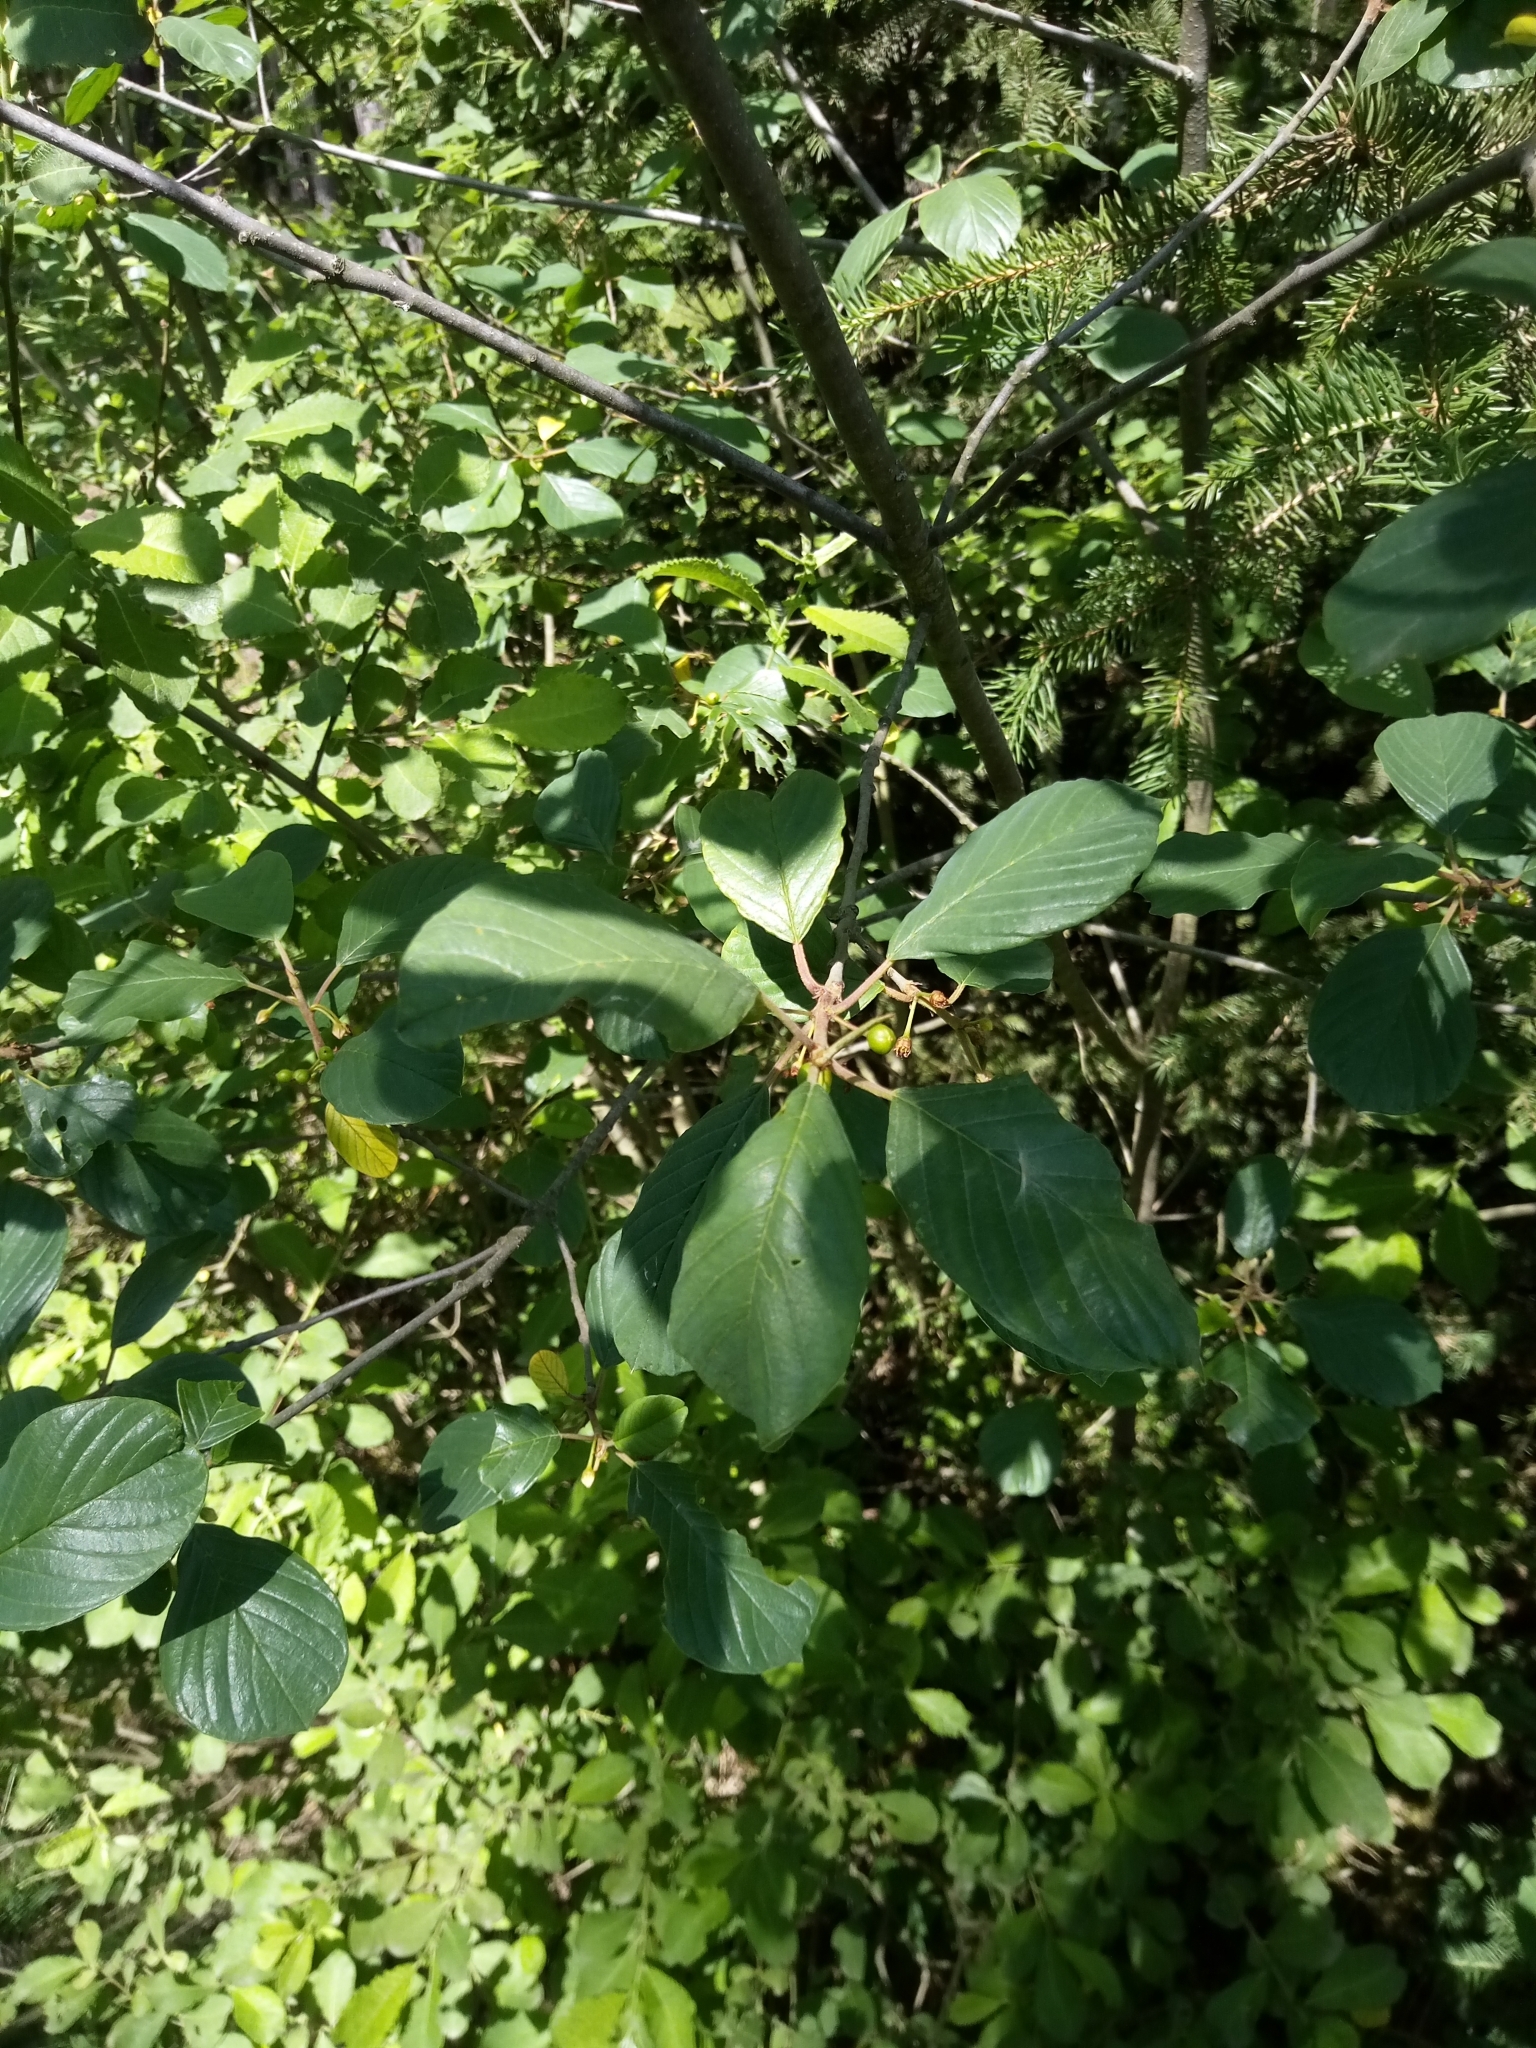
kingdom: Plantae
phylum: Tracheophyta
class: Magnoliopsida
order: Rosales
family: Rhamnaceae
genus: Frangula
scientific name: Frangula alnus
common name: Alder buckthorn
